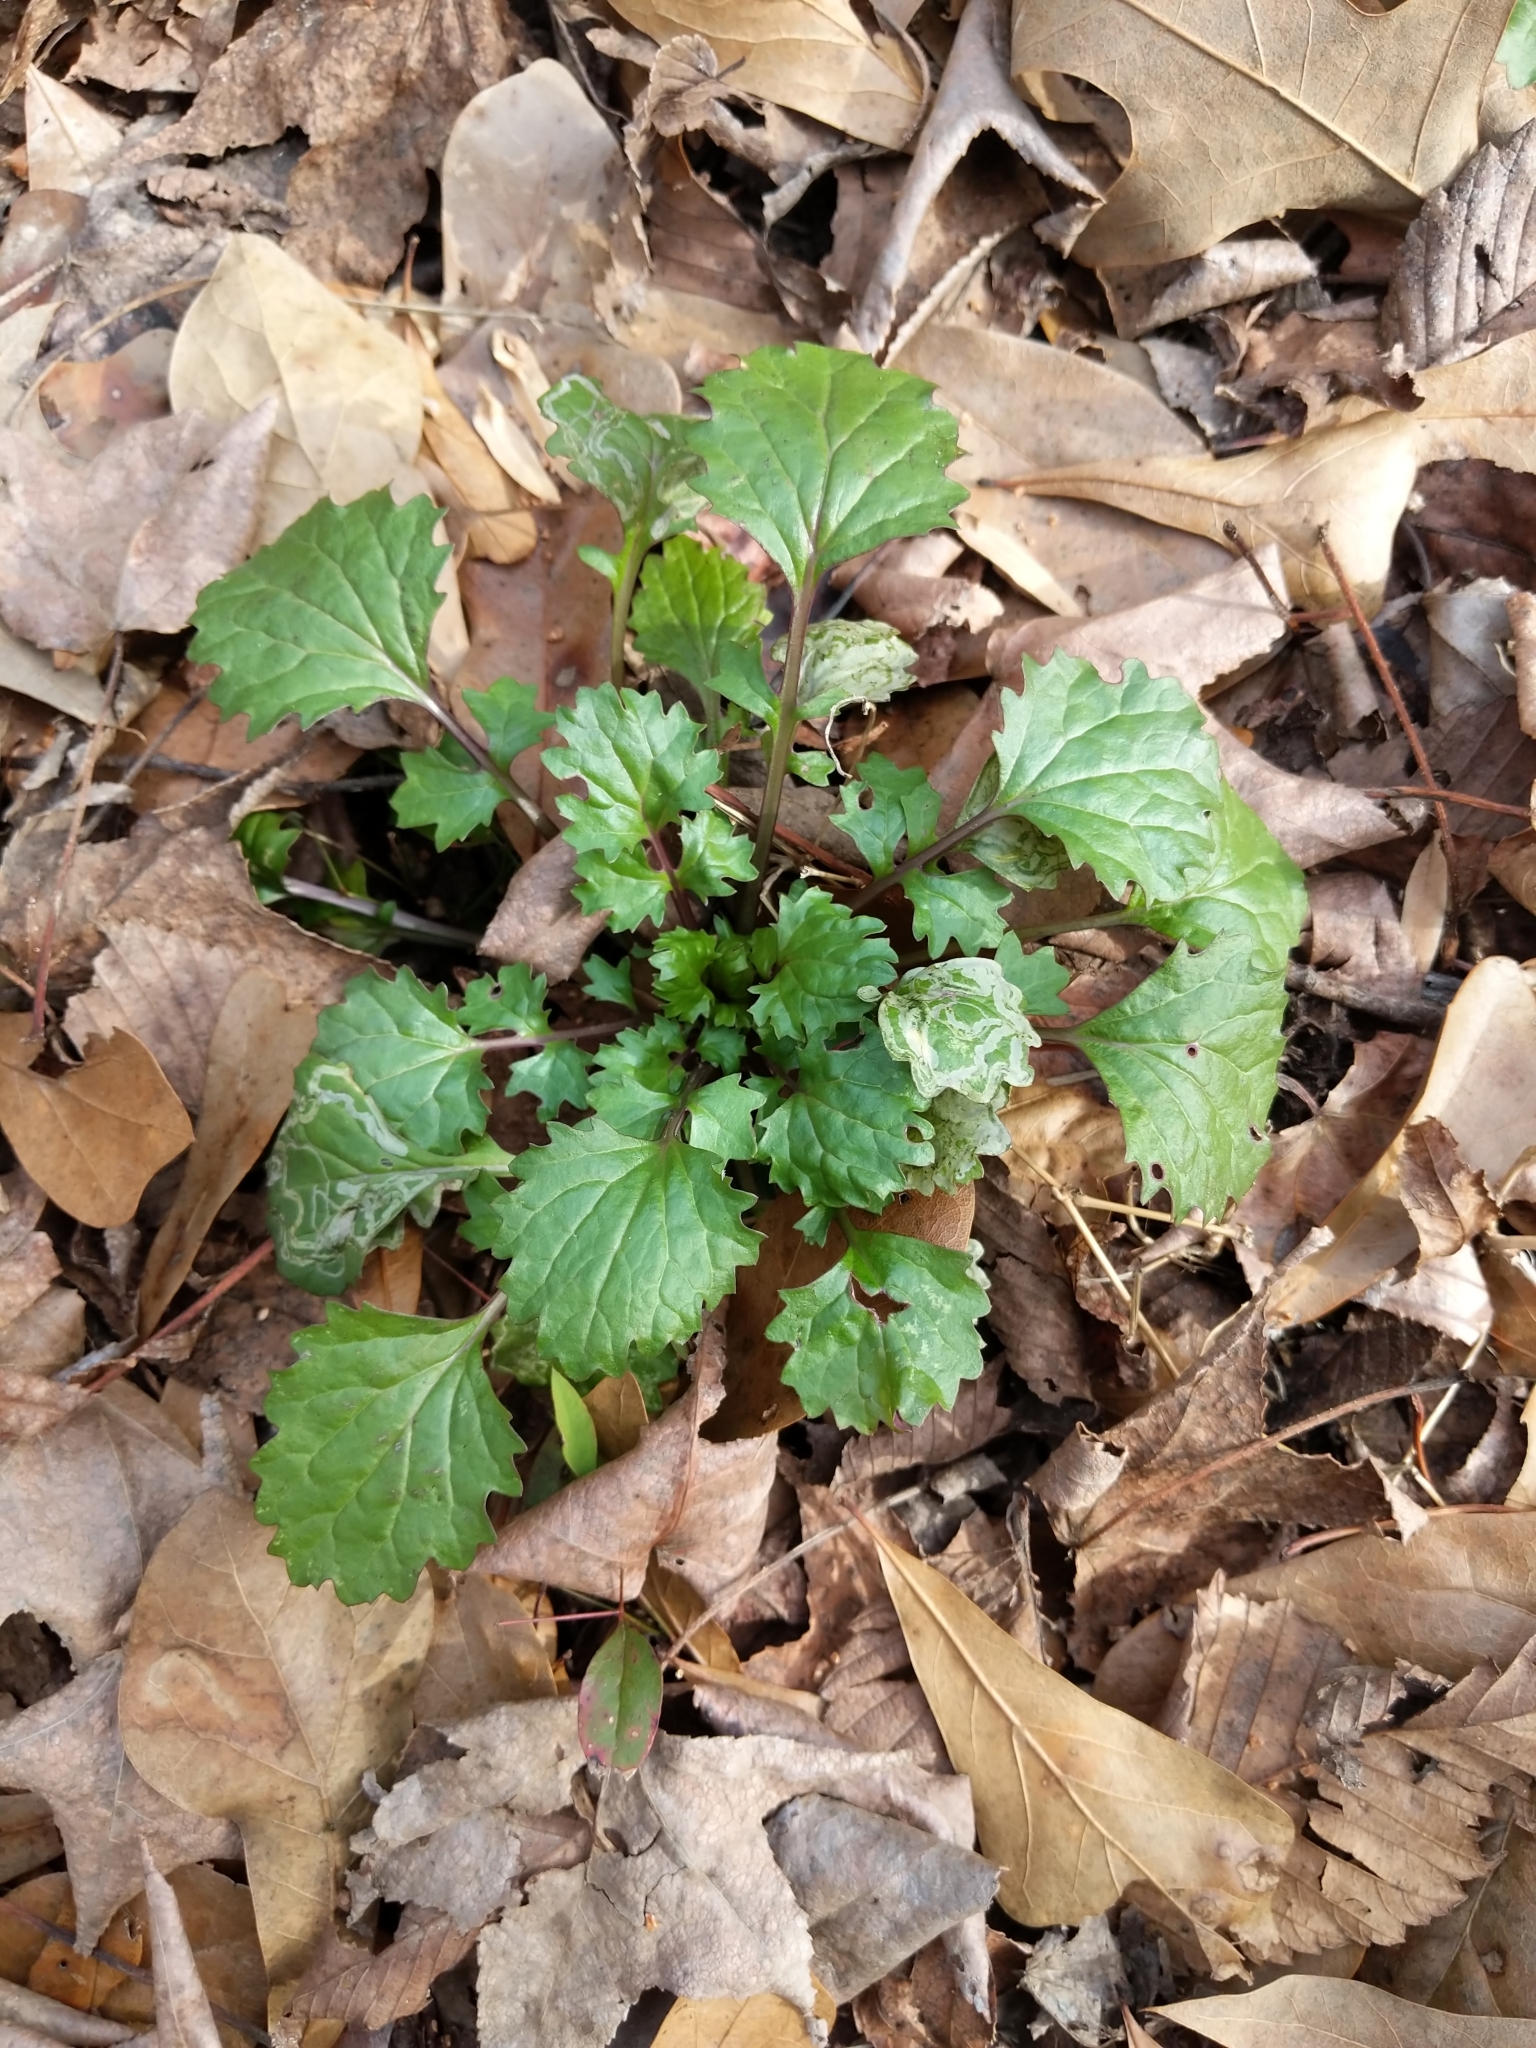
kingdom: Plantae
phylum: Tracheophyta
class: Magnoliopsida
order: Asterales
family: Asteraceae
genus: Packera
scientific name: Packera glabella
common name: Butterweed
